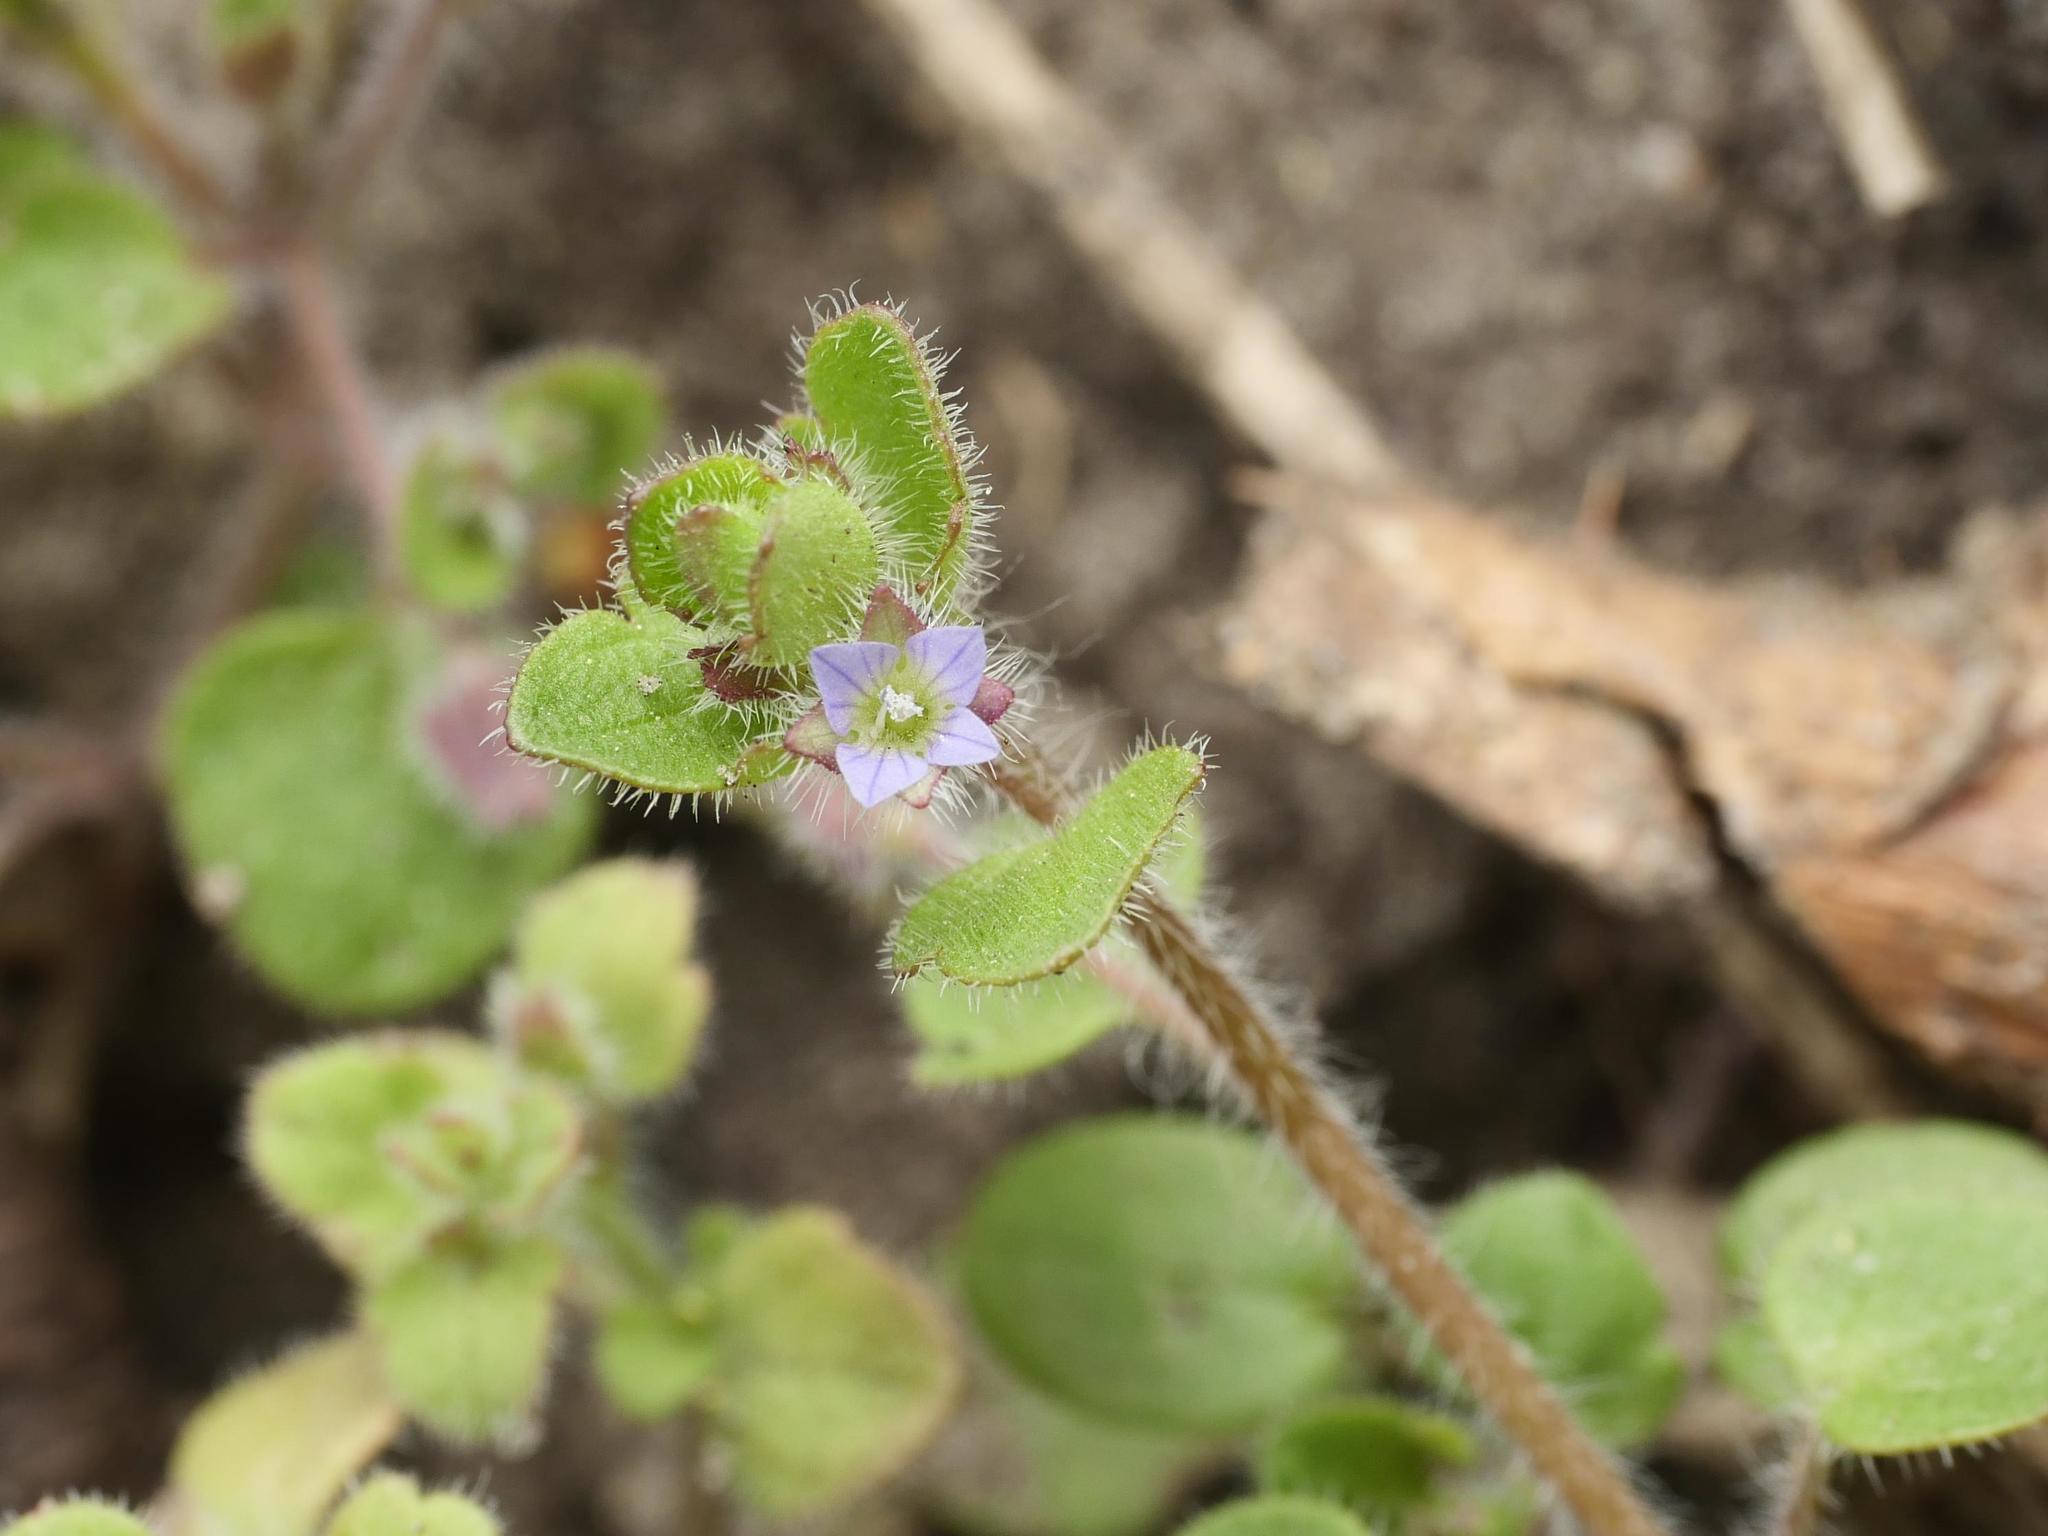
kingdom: Plantae
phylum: Tracheophyta
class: Magnoliopsida
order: Lamiales
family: Plantaginaceae
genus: Veronica
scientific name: Veronica sublobata
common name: False ivy-leaved speedwell
